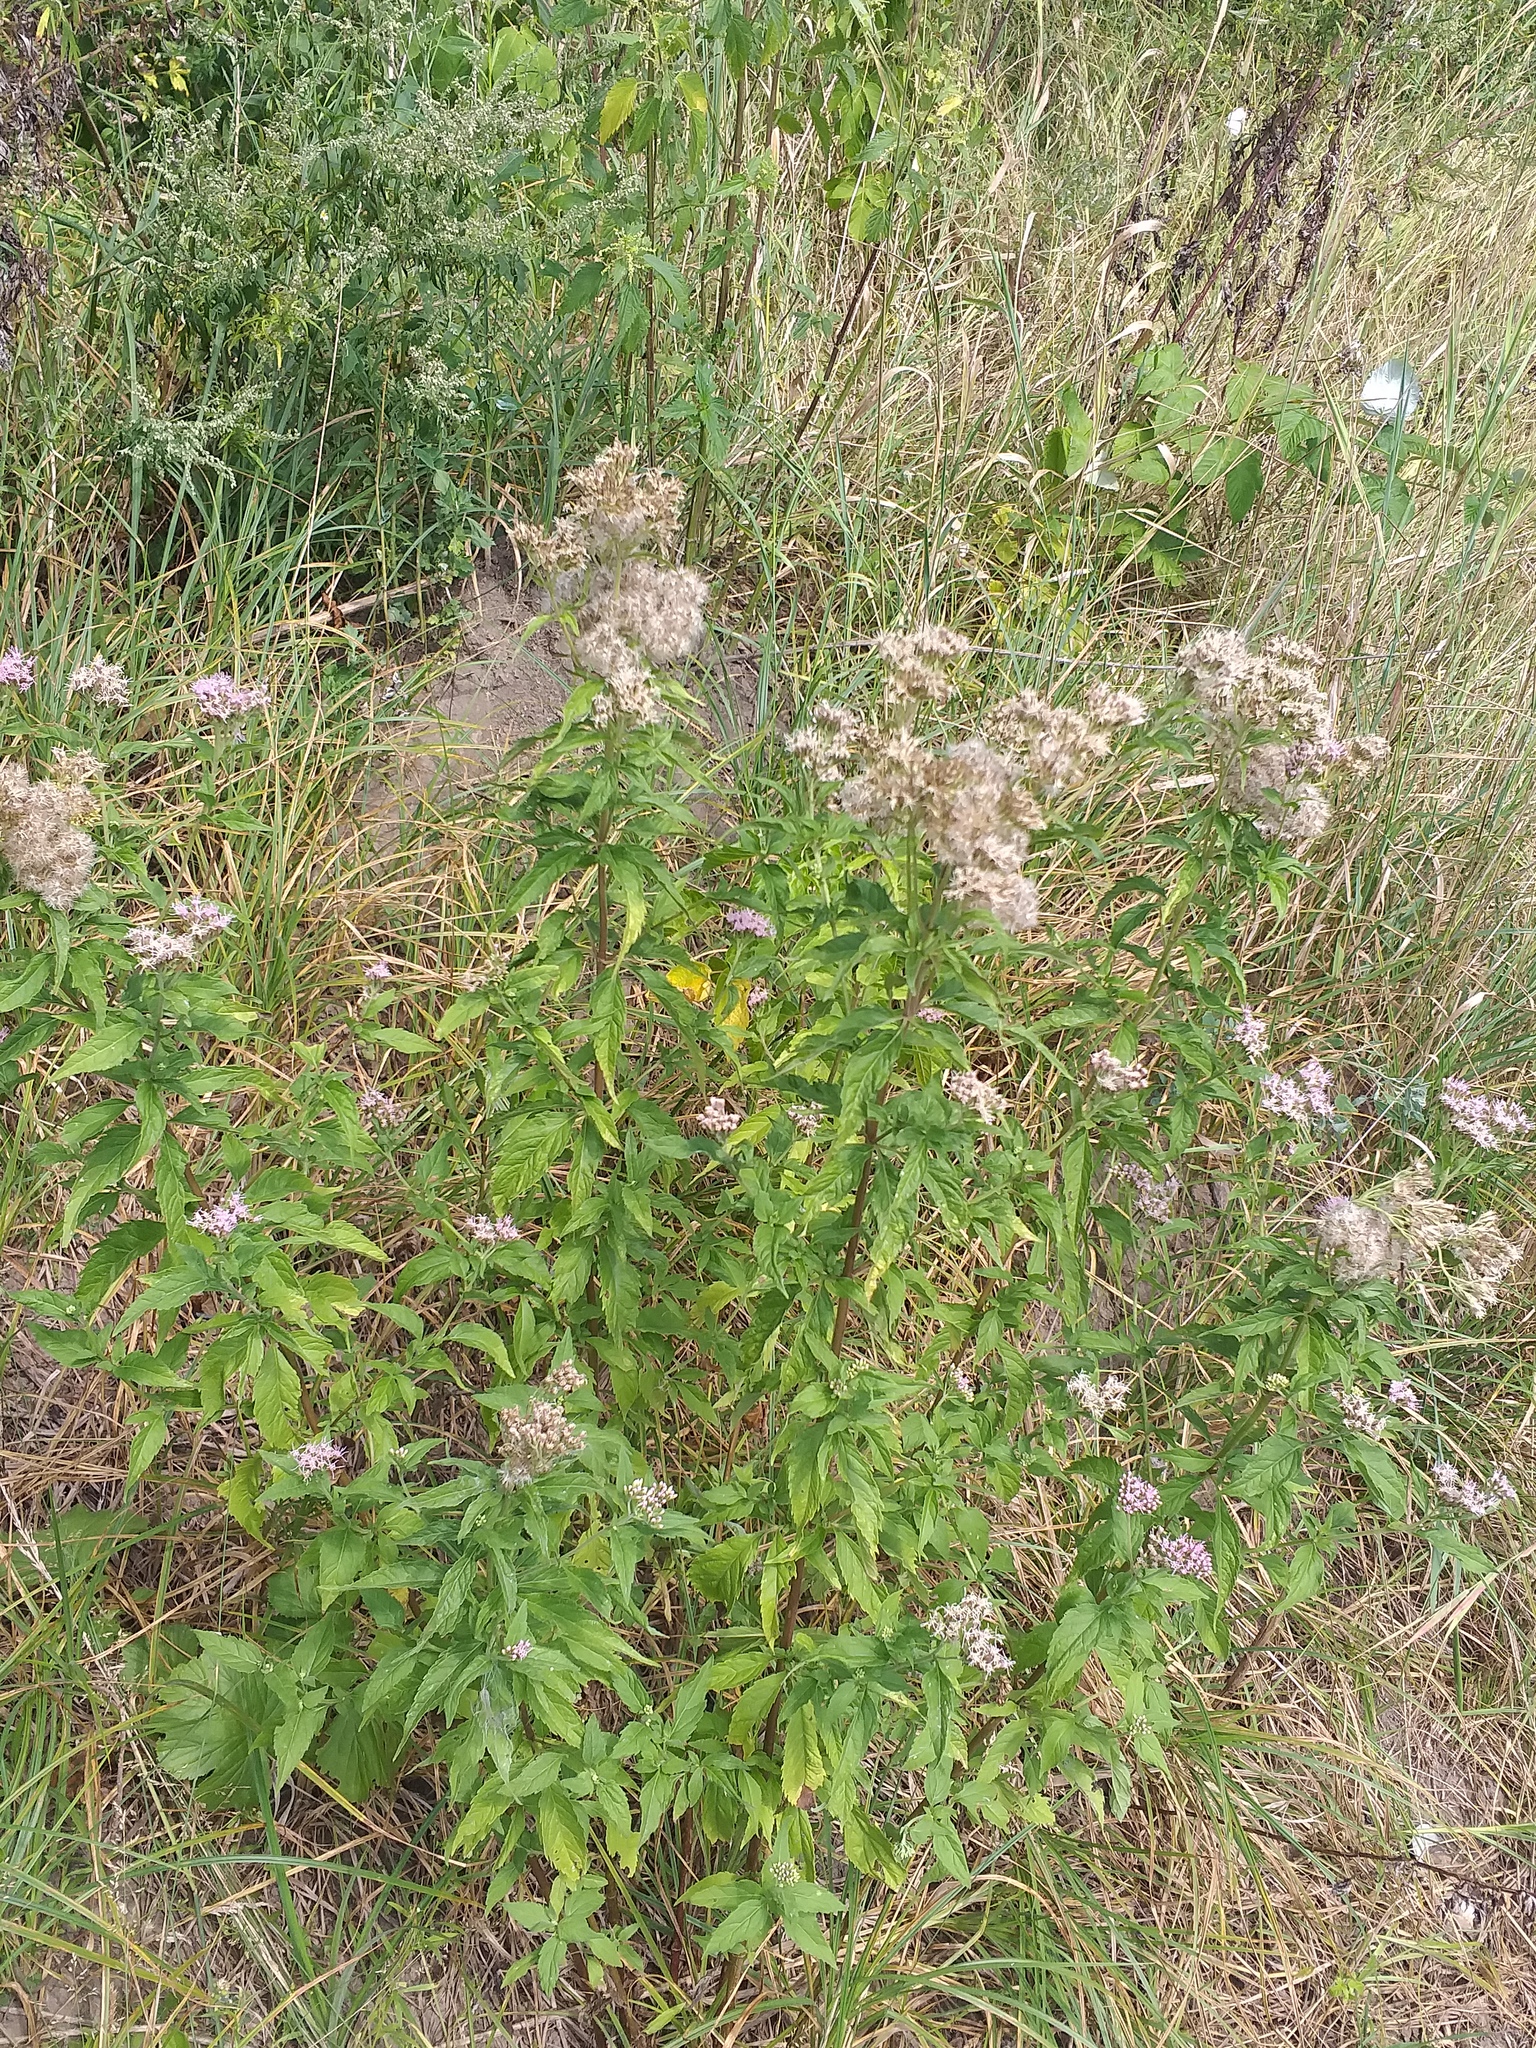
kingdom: Plantae
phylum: Tracheophyta
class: Magnoliopsida
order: Asterales
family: Asteraceae
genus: Eupatorium
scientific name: Eupatorium cannabinum
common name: Hemp-agrimony
